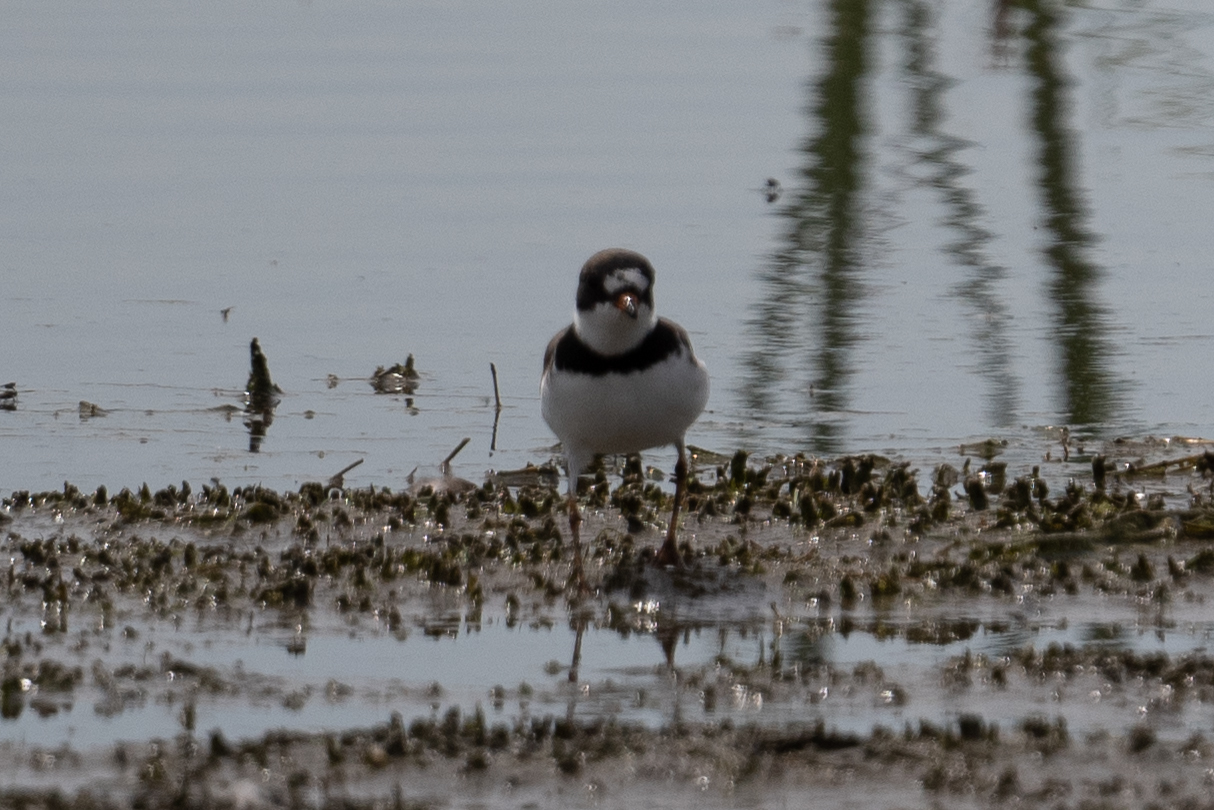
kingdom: Animalia
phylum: Chordata
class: Aves
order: Charadriiformes
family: Charadriidae
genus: Charadrius
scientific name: Charadrius semipalmatus
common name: Semipalmated plover
